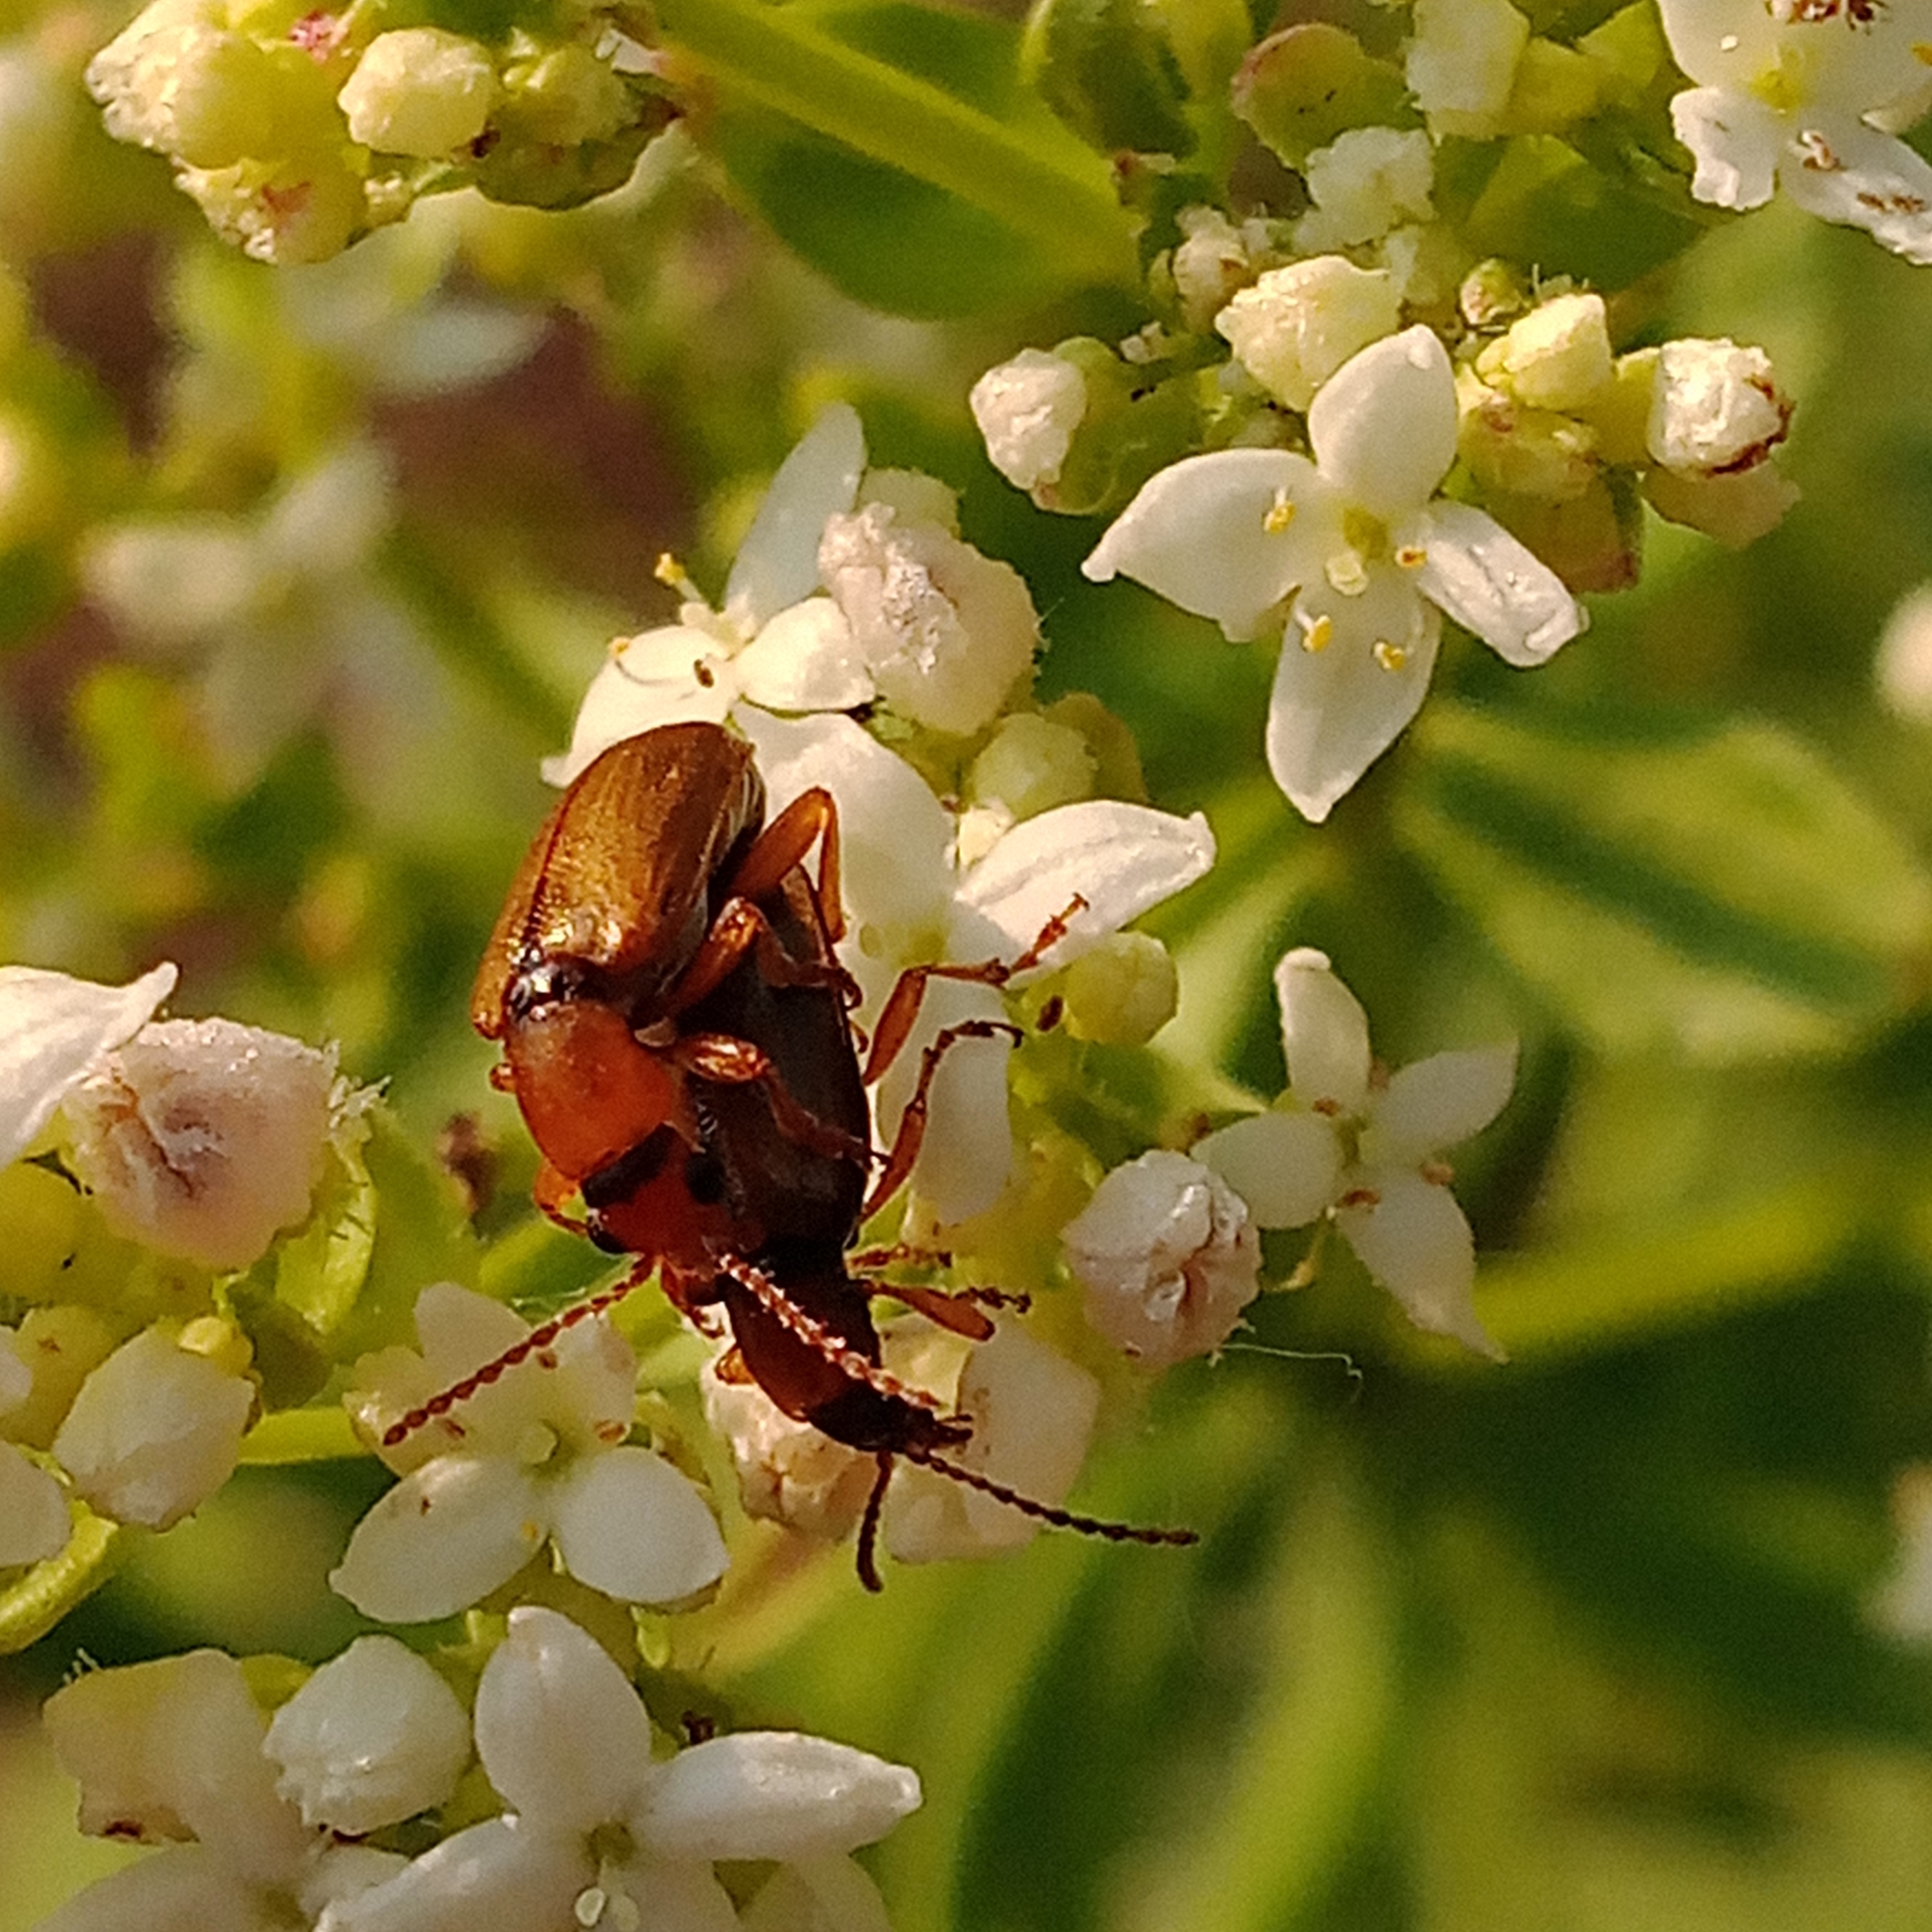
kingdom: Animalia
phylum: Arthropoda
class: Insecta
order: Coleoptera
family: Orsodacnidae
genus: Orsodacne
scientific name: Orsodacne cerasi
